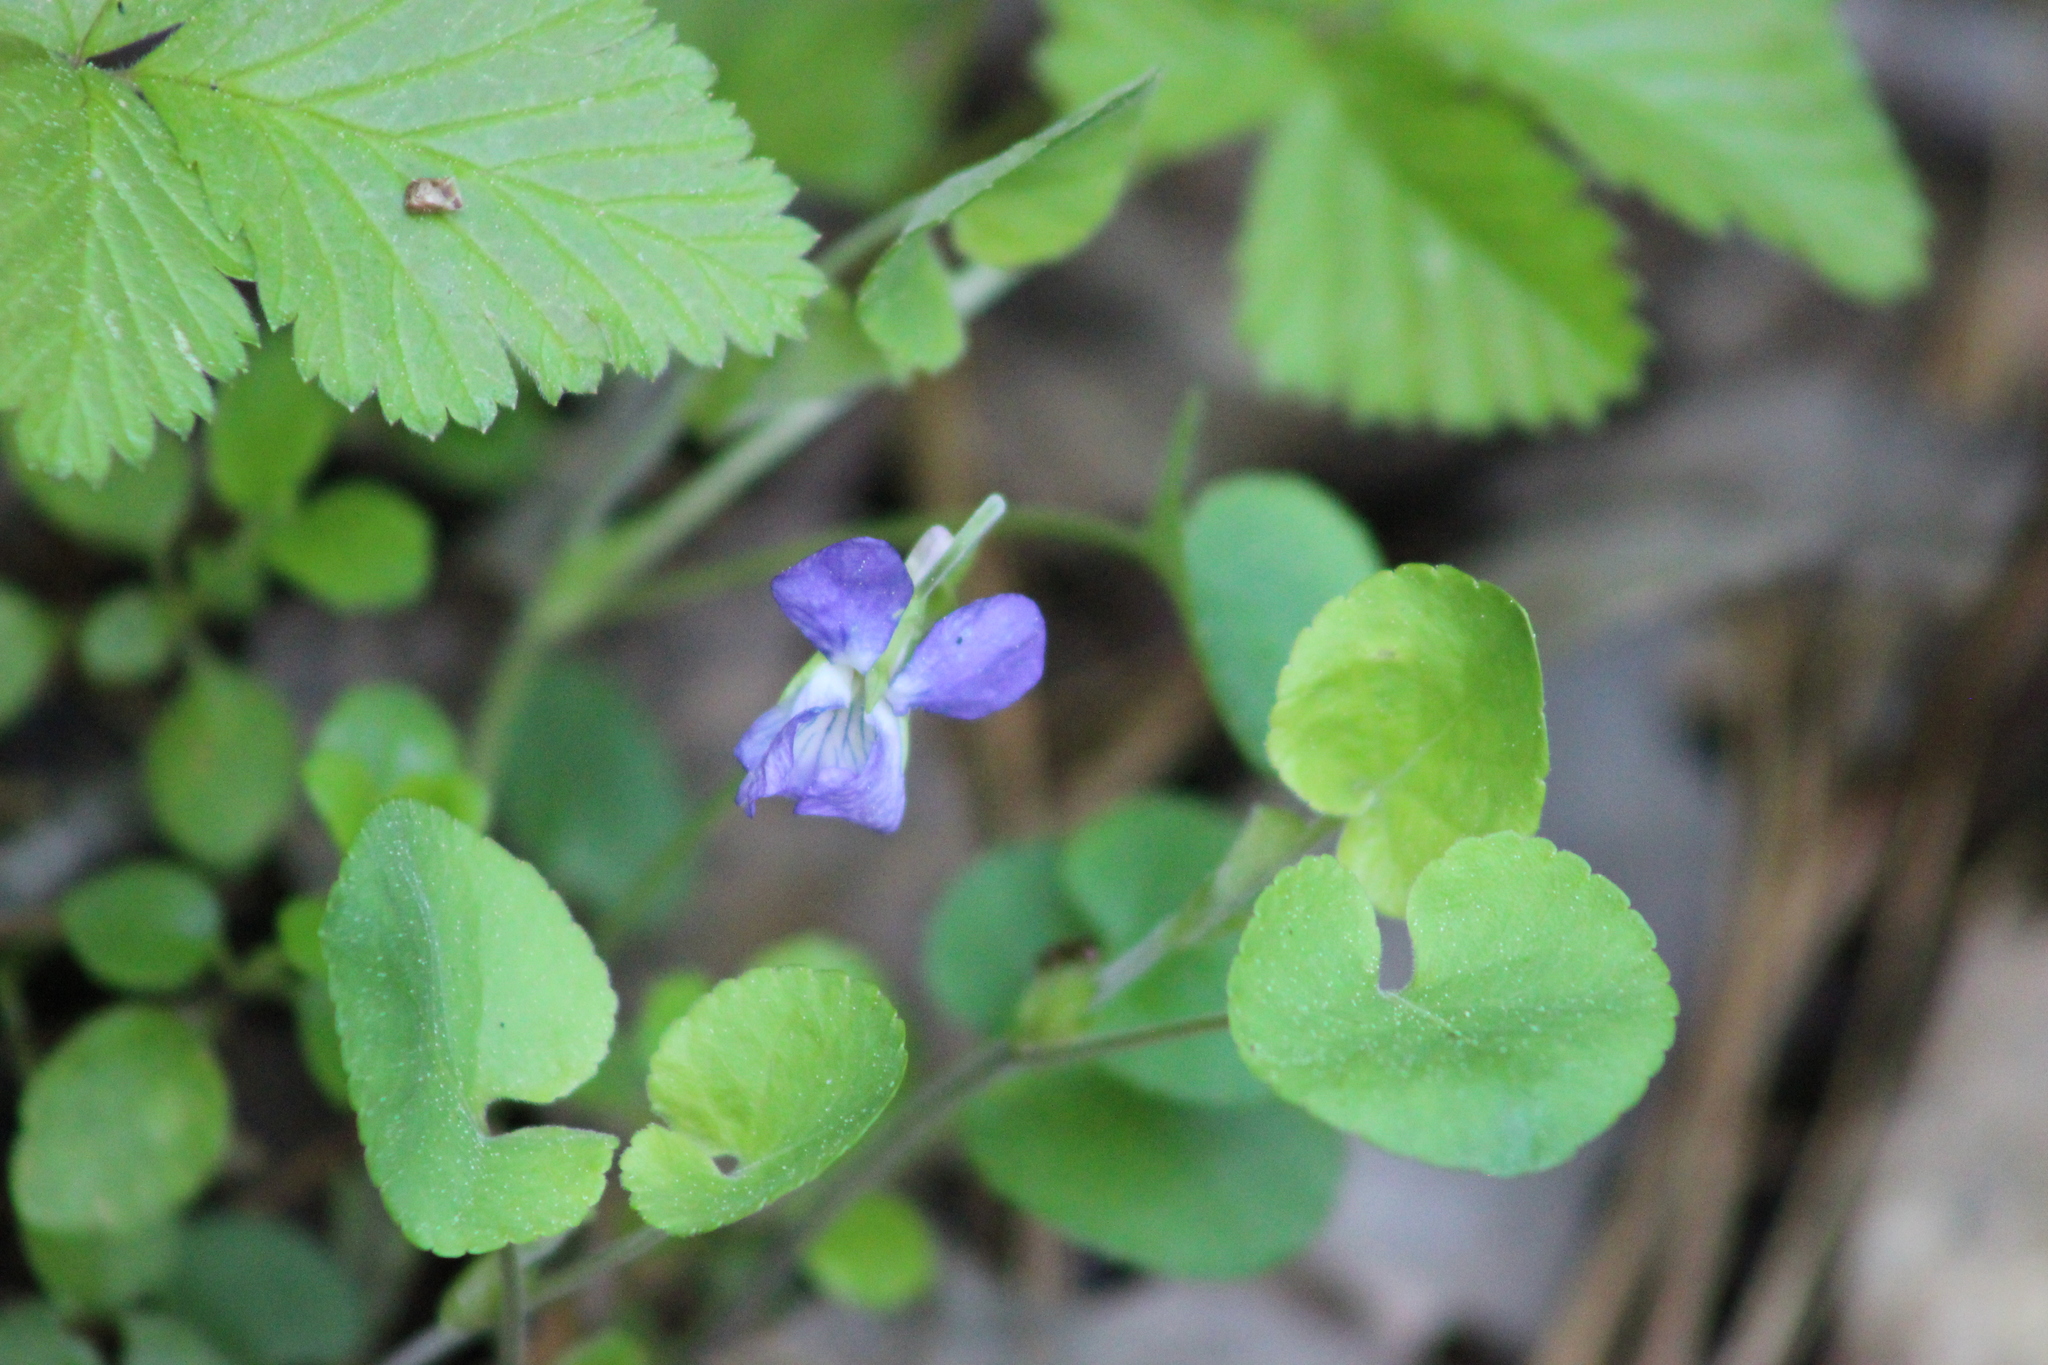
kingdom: Plantae
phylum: Tracheophyta
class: Magnoliopsida
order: Malpighiales
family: Violaceae
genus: Viola
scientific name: Viola rupestris
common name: Teesdale violet
